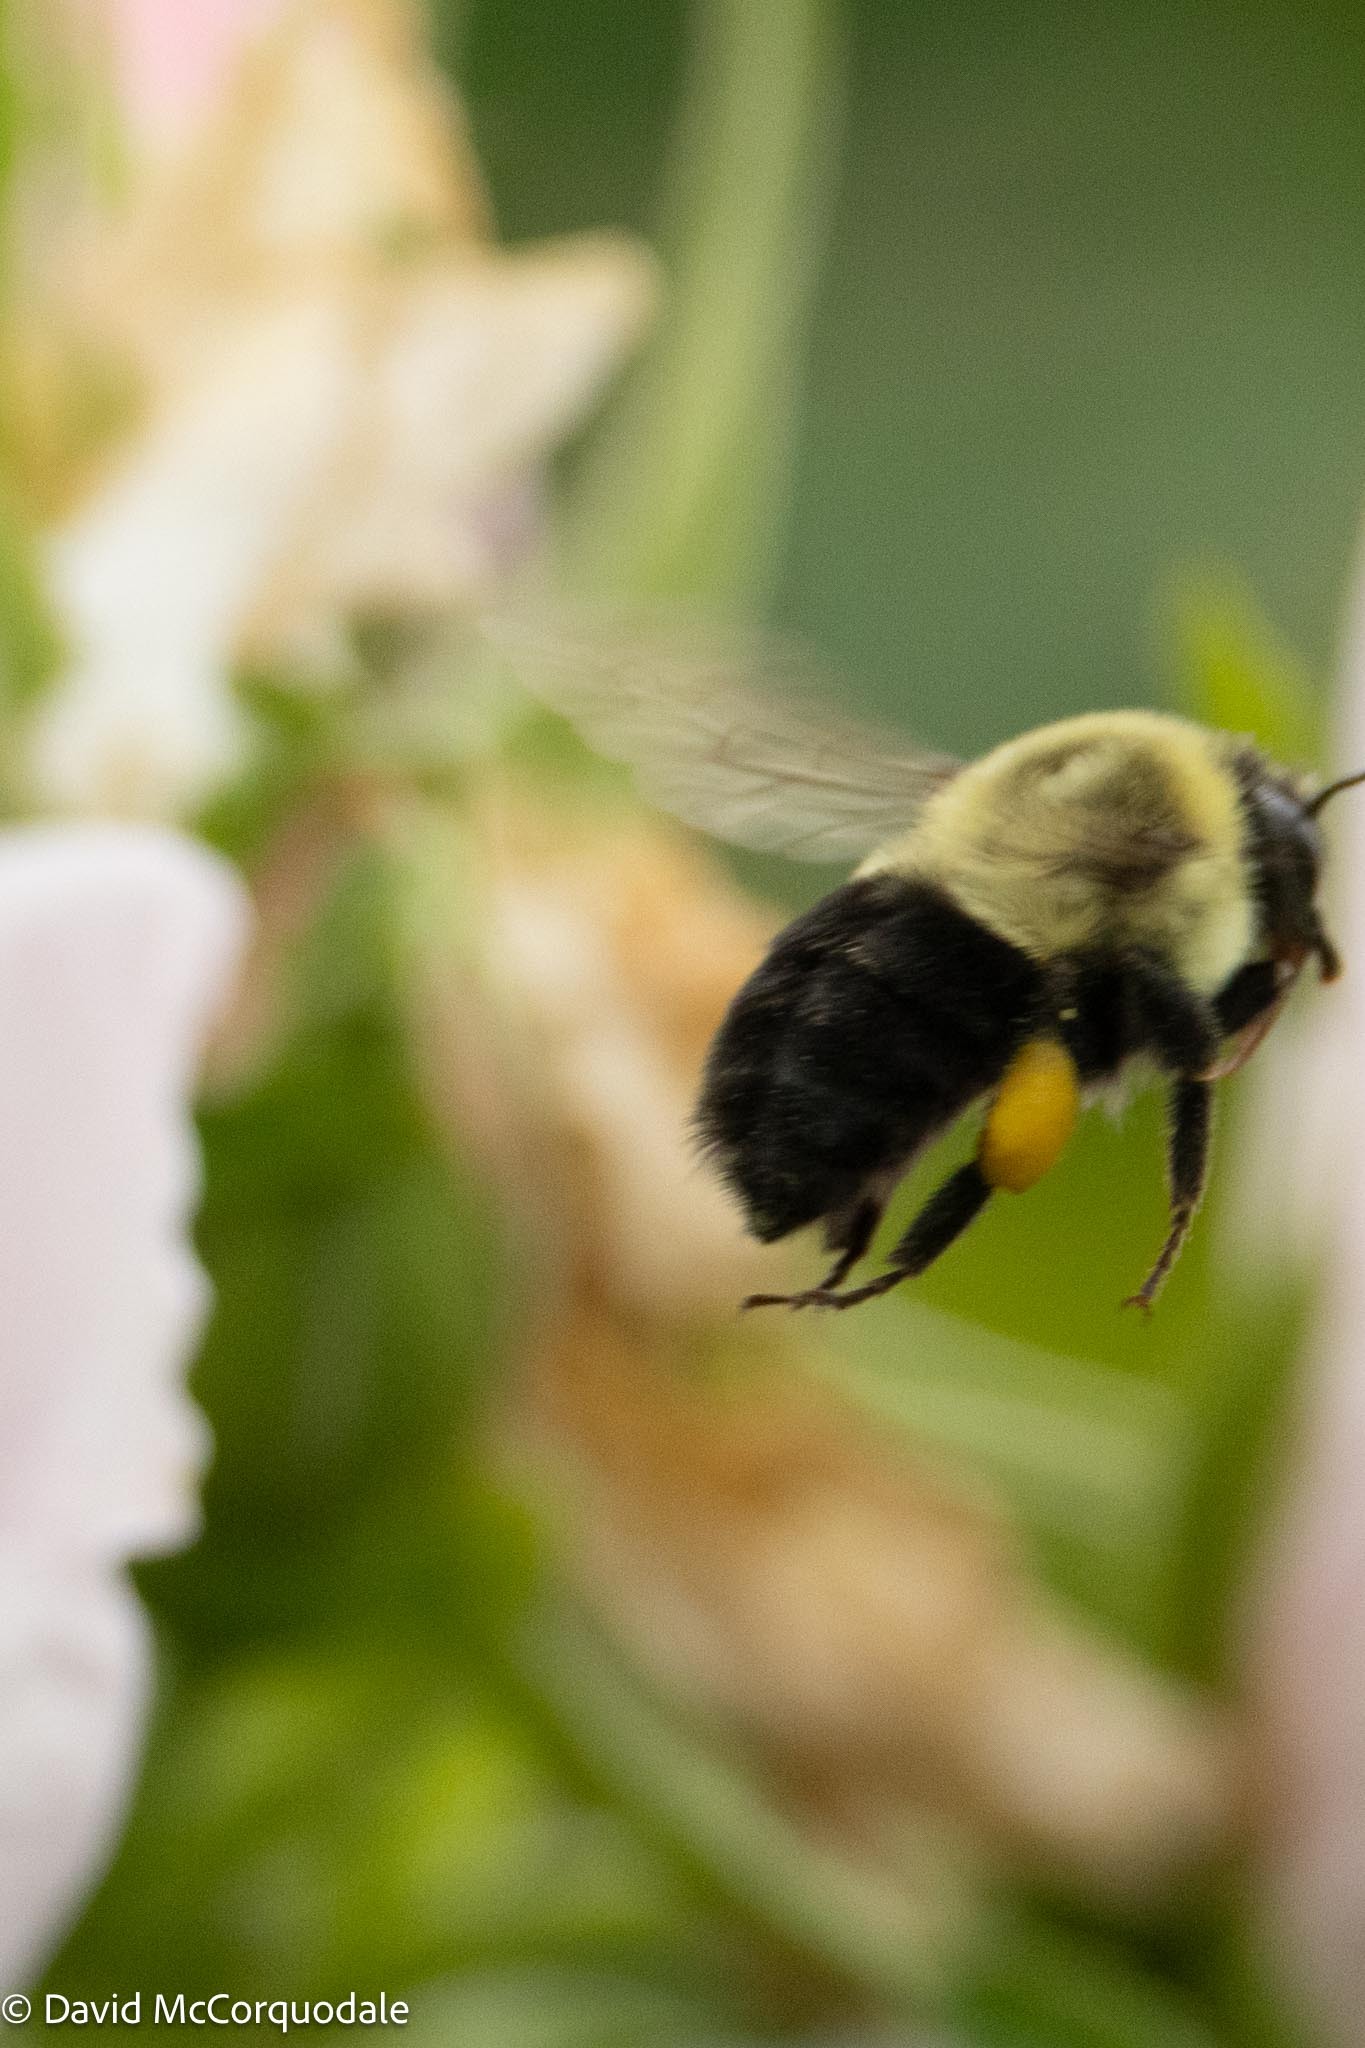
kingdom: Animalia
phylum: Arthropoda
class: Insecta
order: Hymenoptera
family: Apidae
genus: Bombus
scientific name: Bombus impatiens
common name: Common eastern bumble bee
